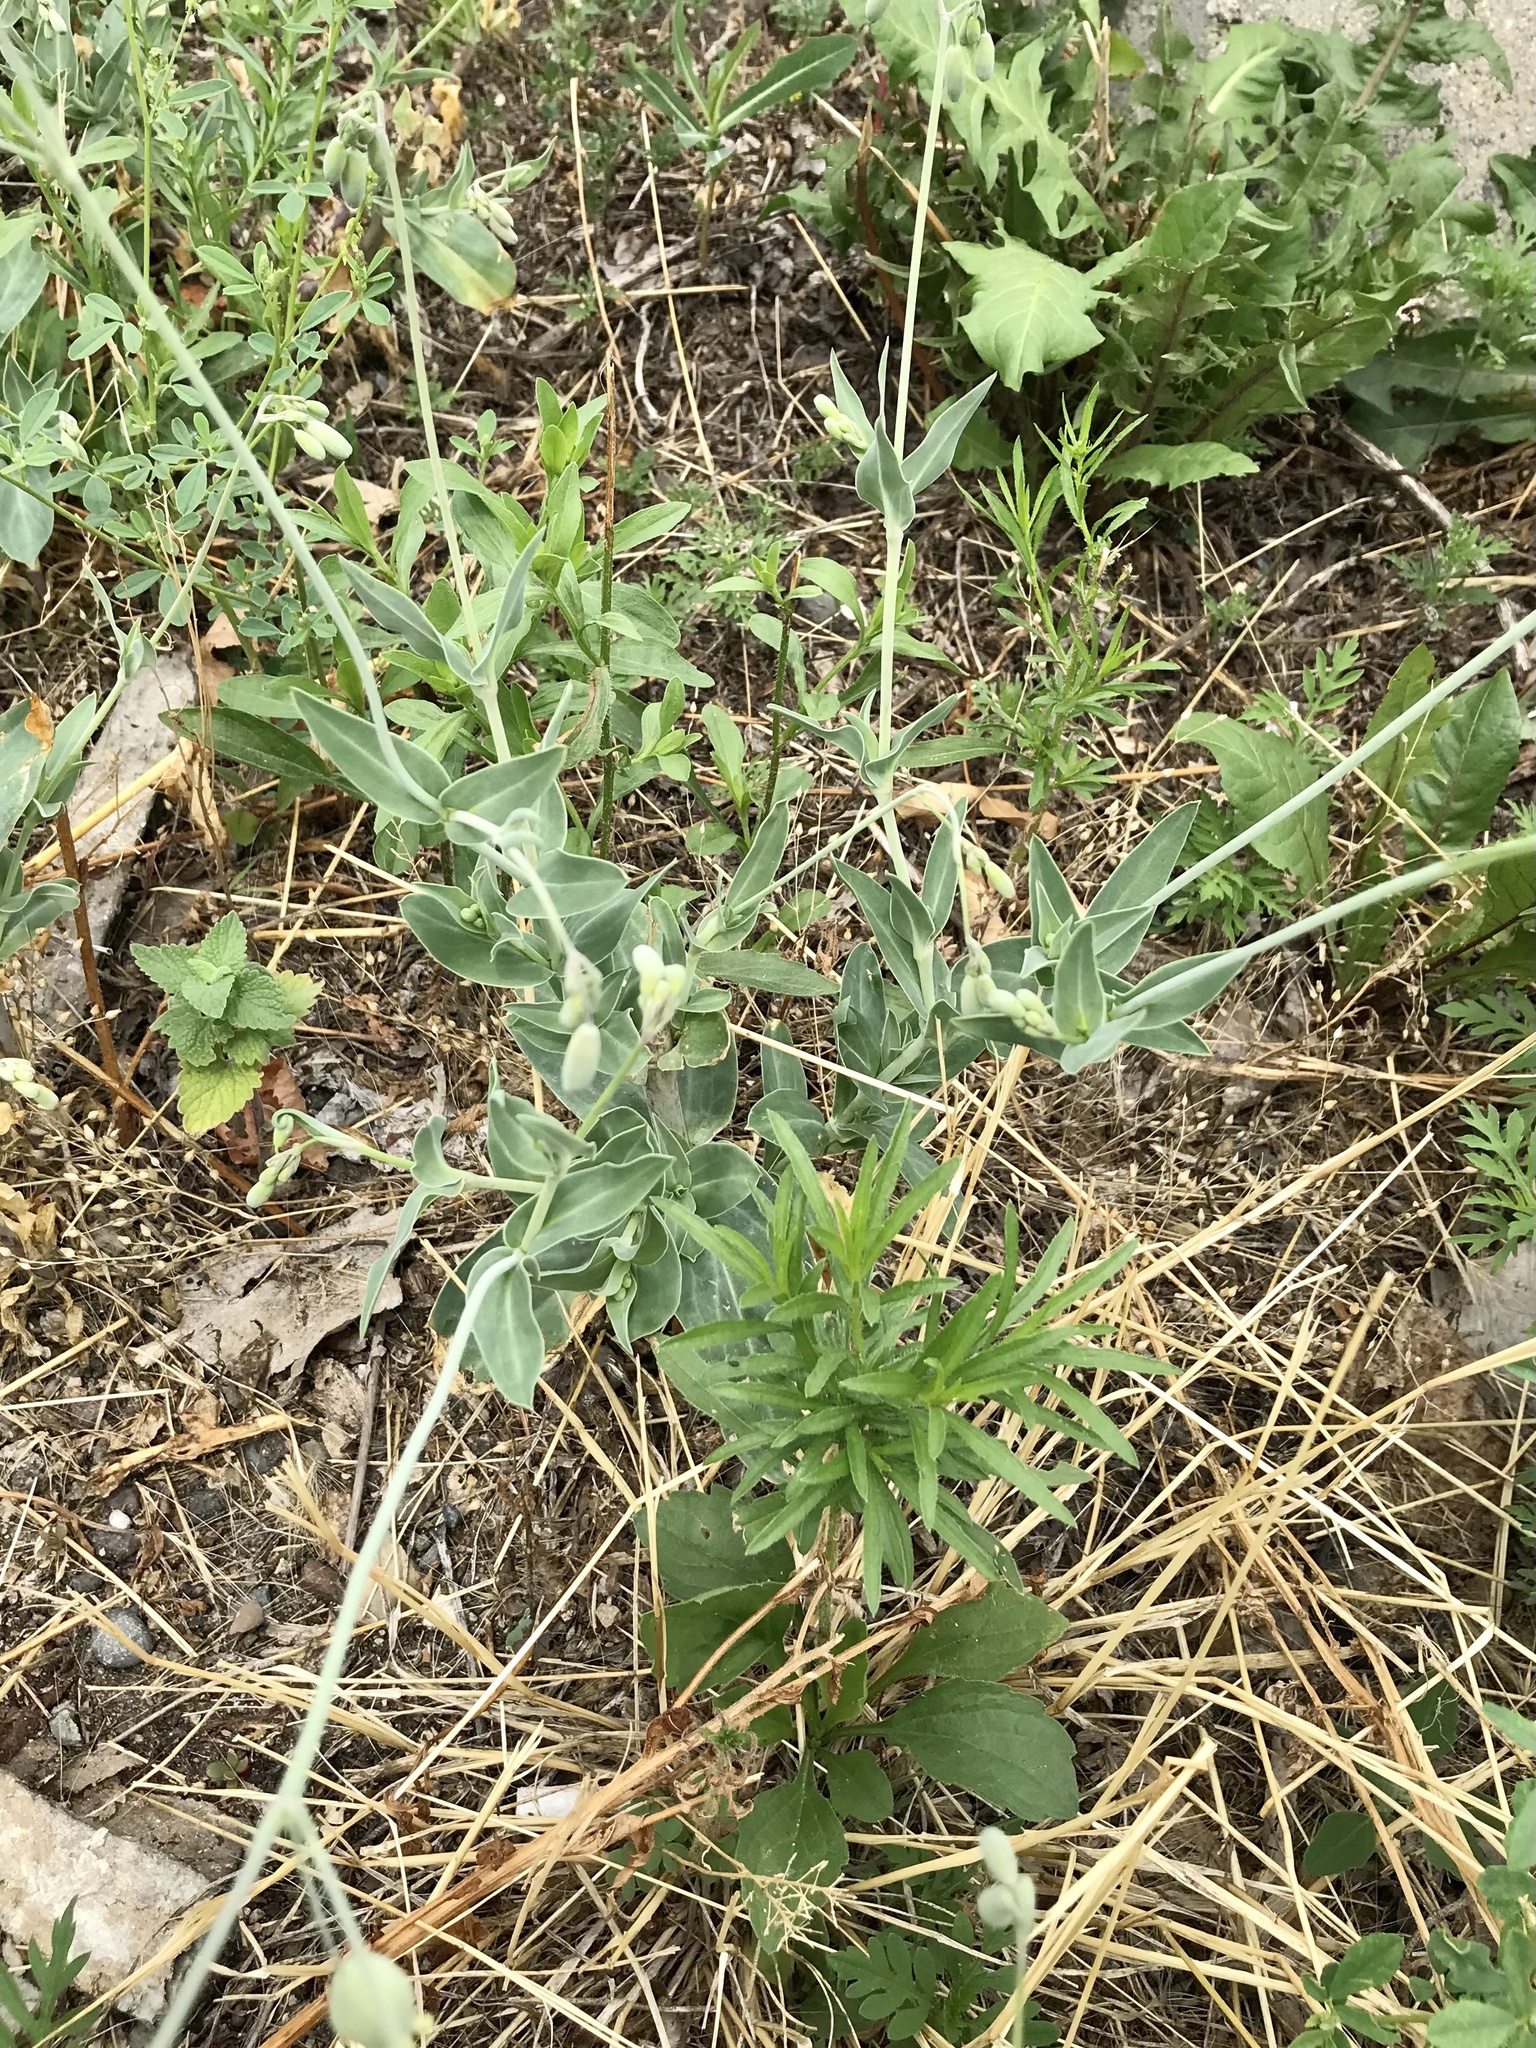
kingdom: Plantae
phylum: Tracheophyta
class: Magnoliopsida
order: Caryophyllales
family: Caryophyllaceae
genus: Silene
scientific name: Silene csereii
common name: Balkan catchfly
